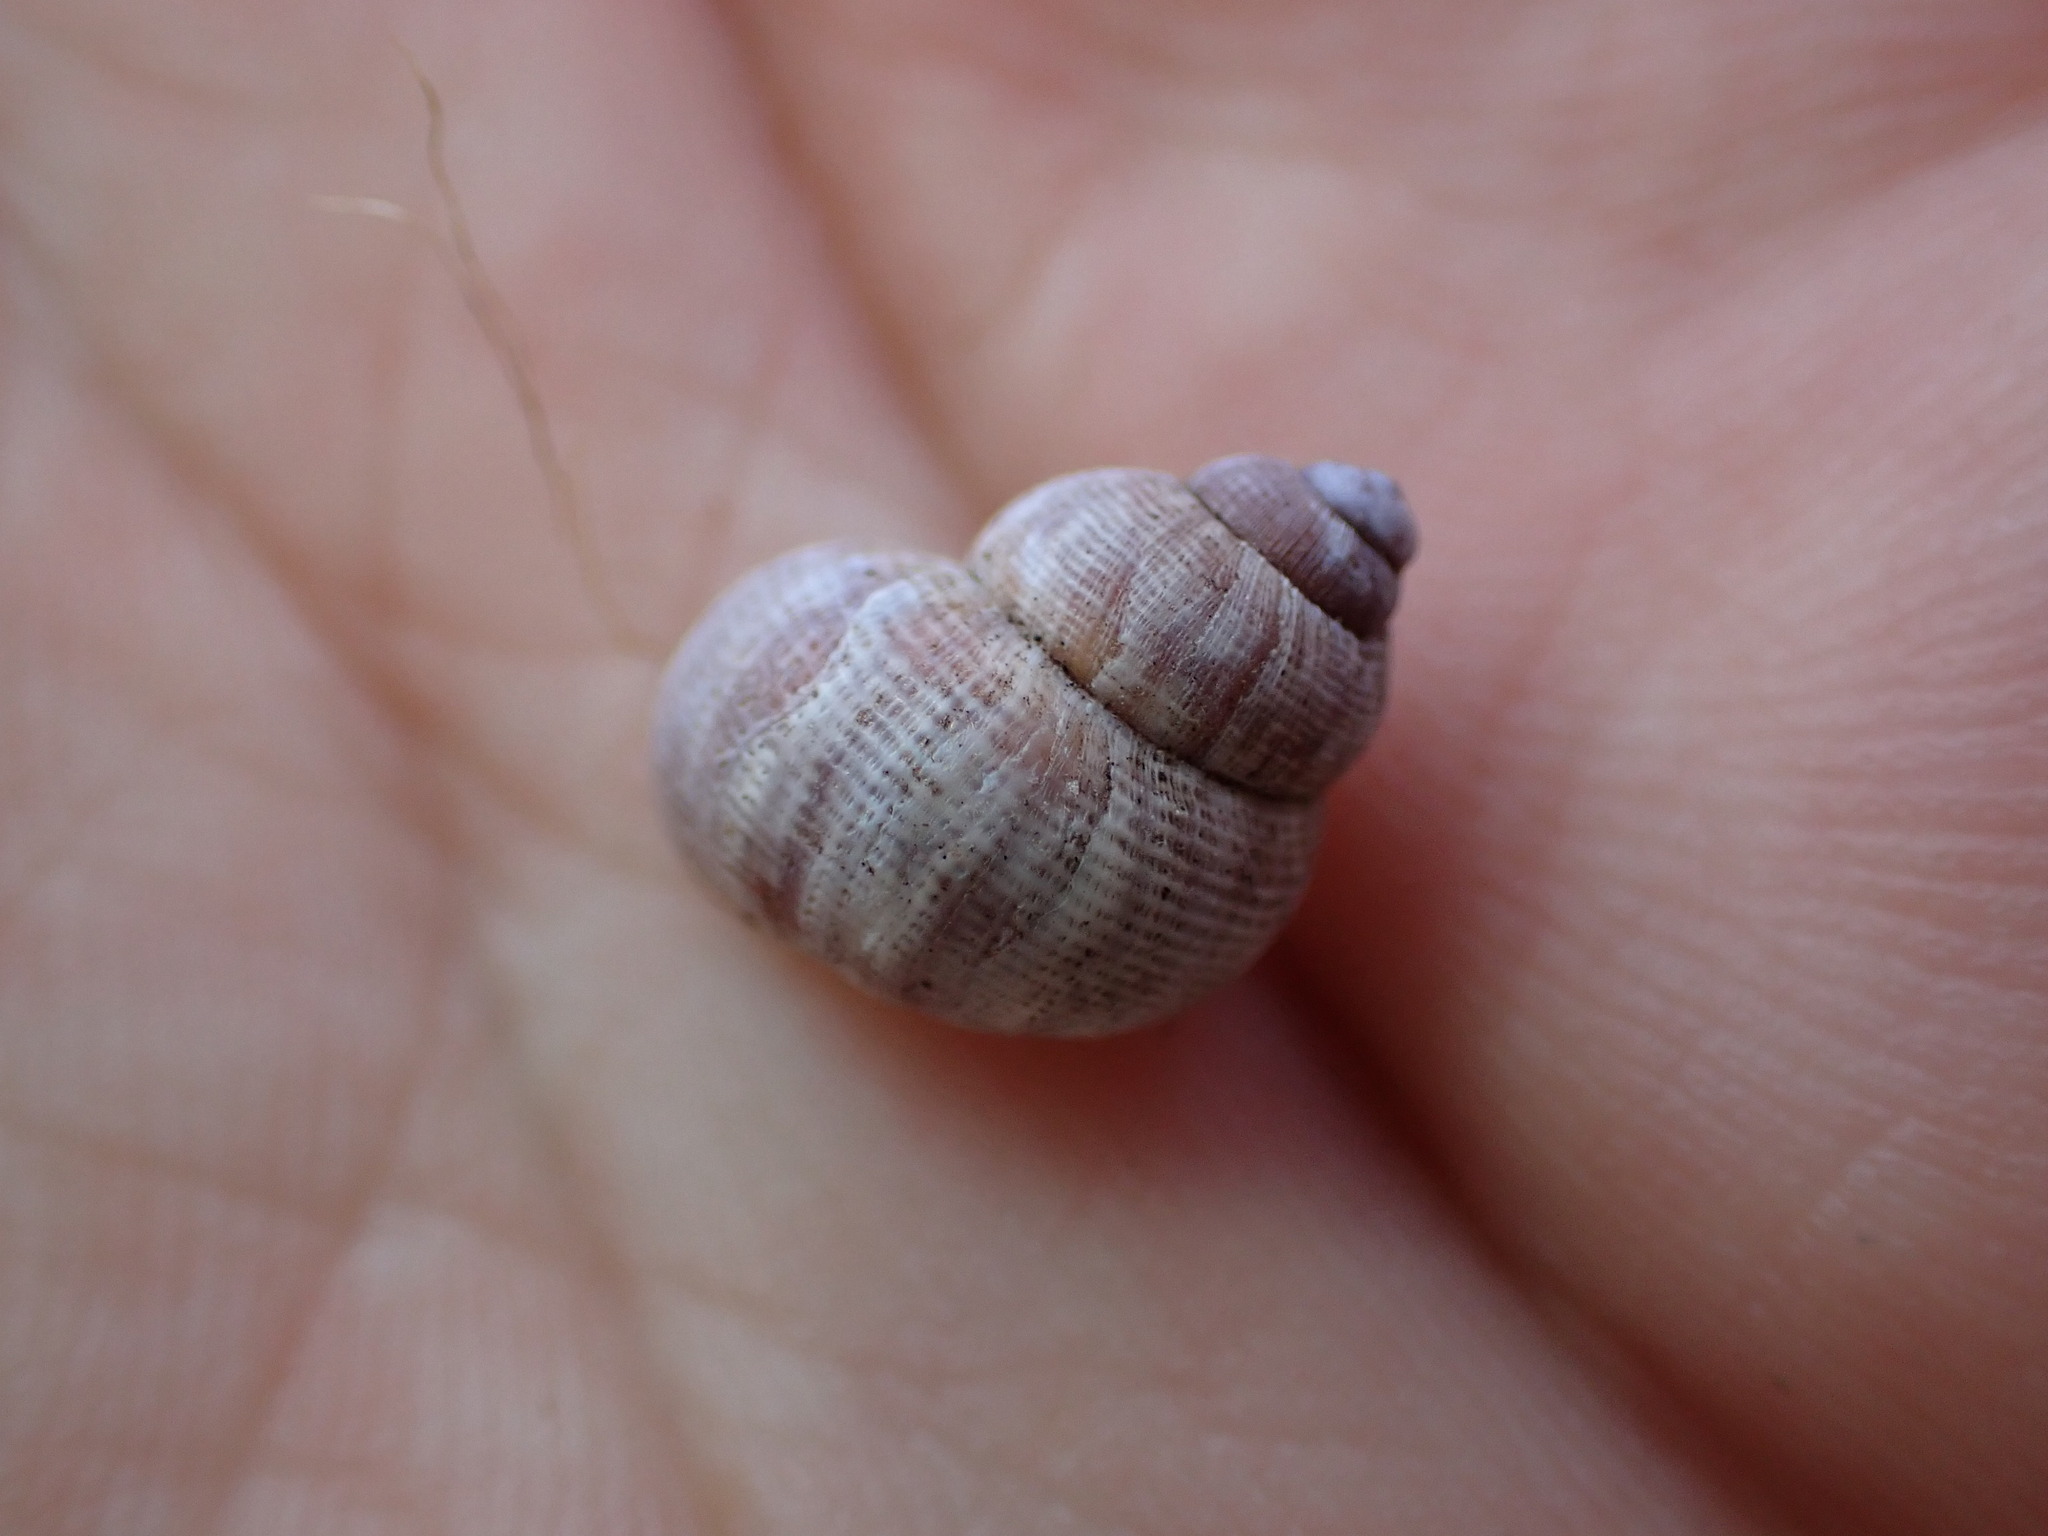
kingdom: Animalia
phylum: Mollusca
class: Gastropoda
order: Littorinimorpha
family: Pomatiidae
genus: Pomatias
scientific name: Pomatias elegans
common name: Red-mouthed snail
